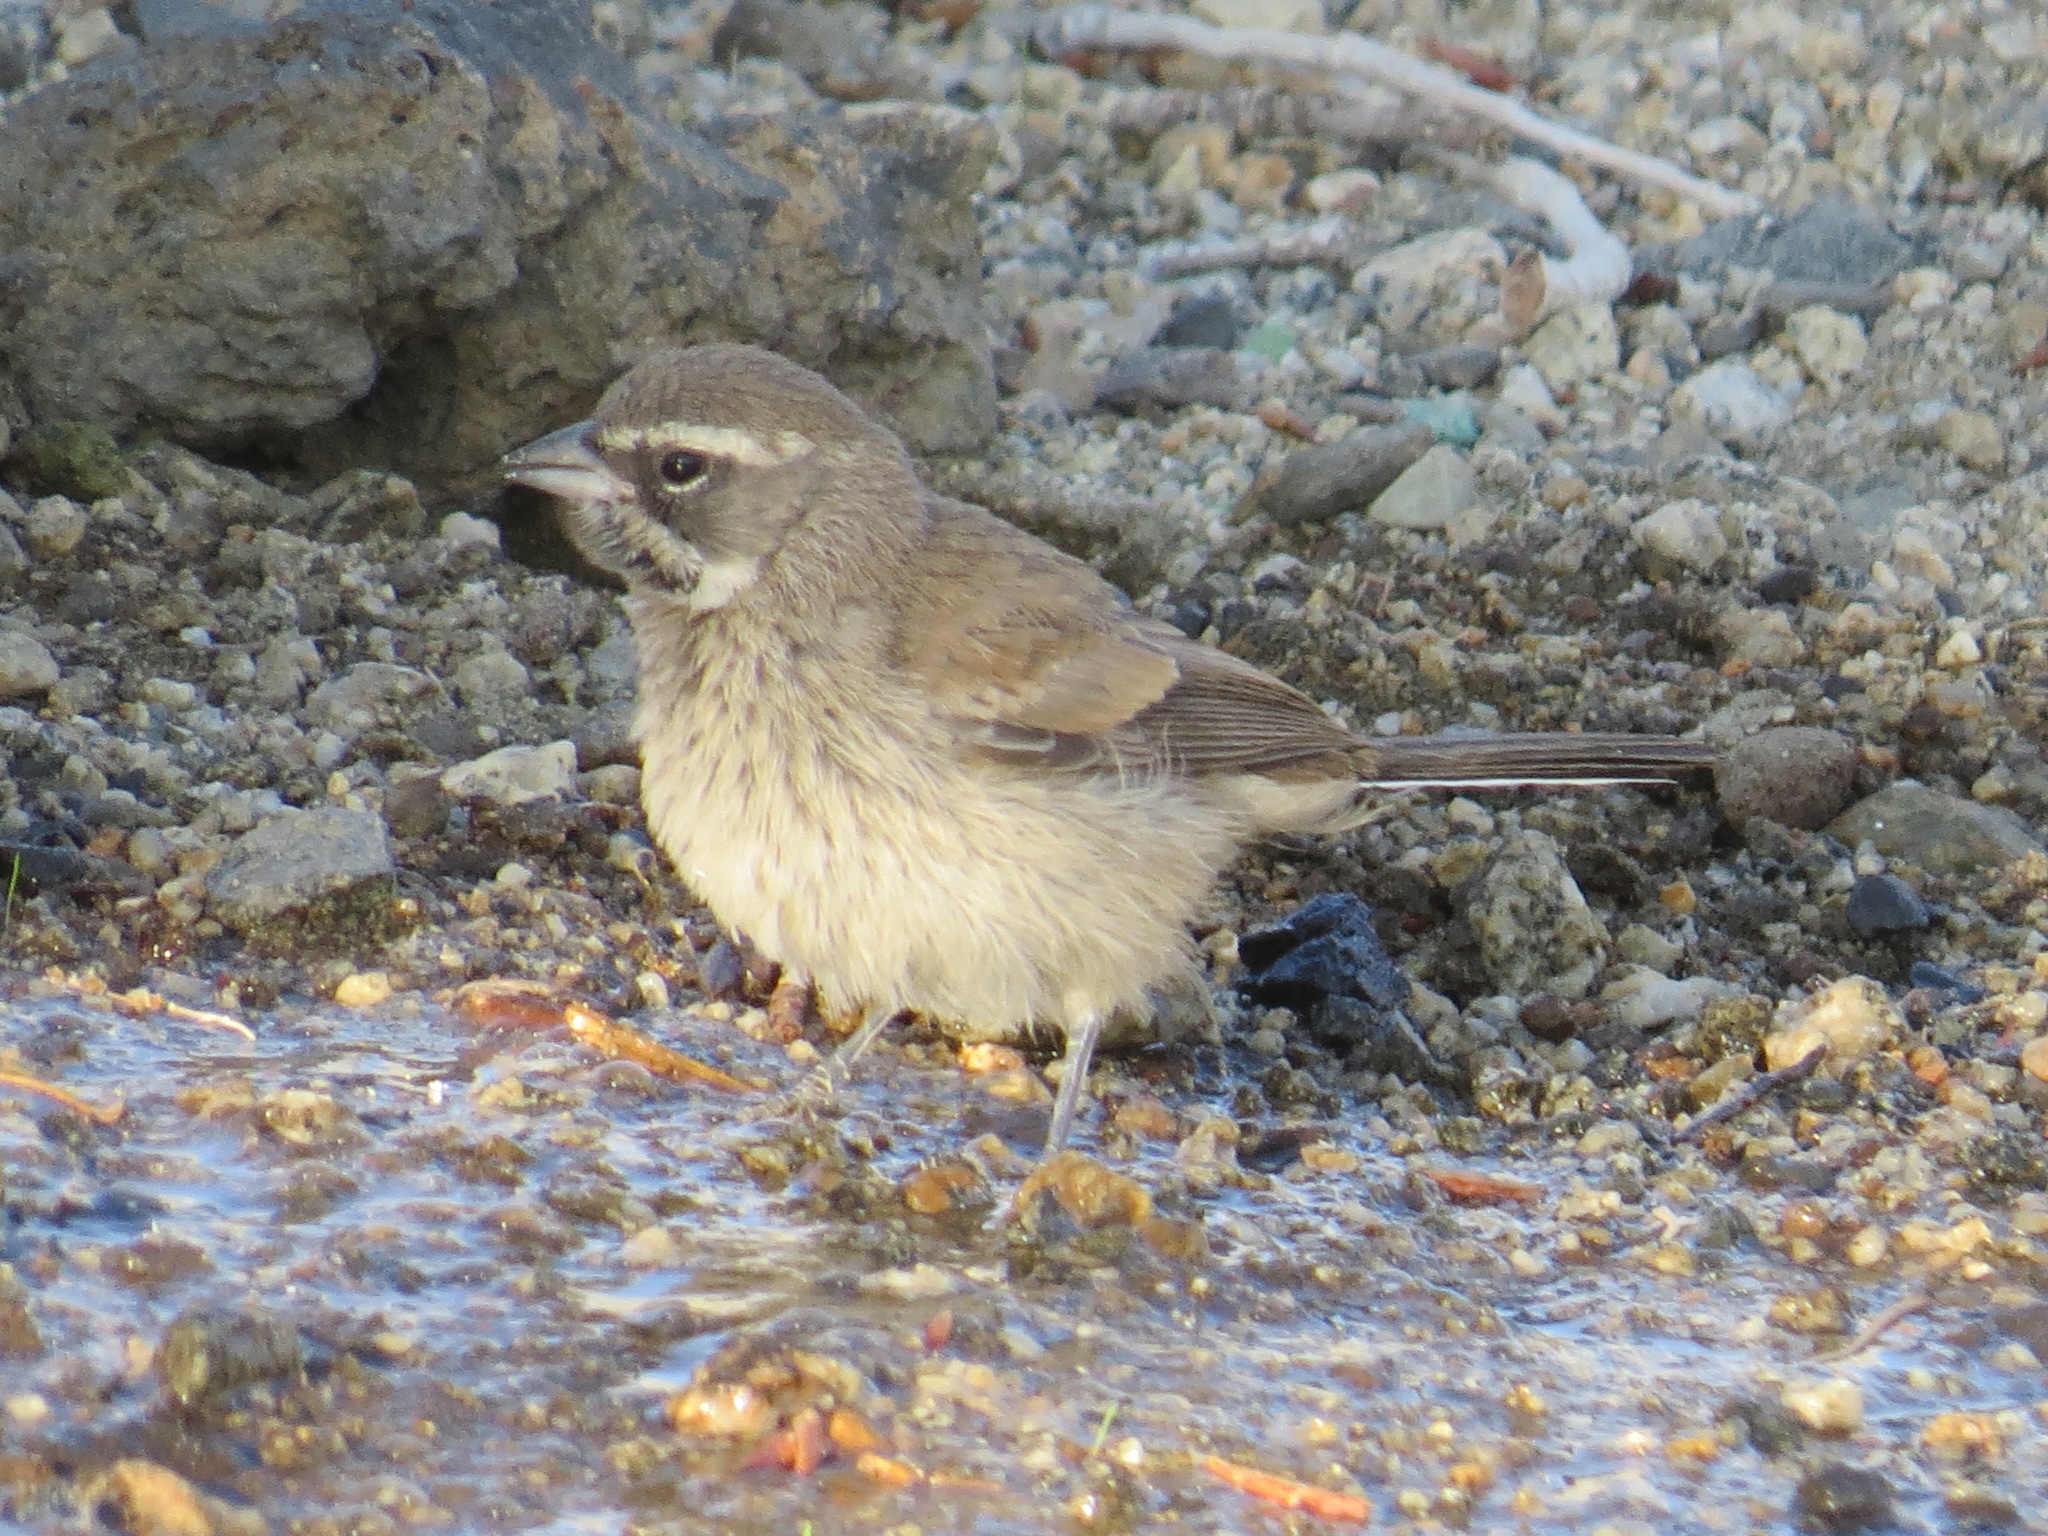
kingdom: Animalia
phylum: Chordata
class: Aves
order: Passeriformes
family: Passerellidae
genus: Amphispiza
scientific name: Amphispiza bilineata
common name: Black-throated sparrow
